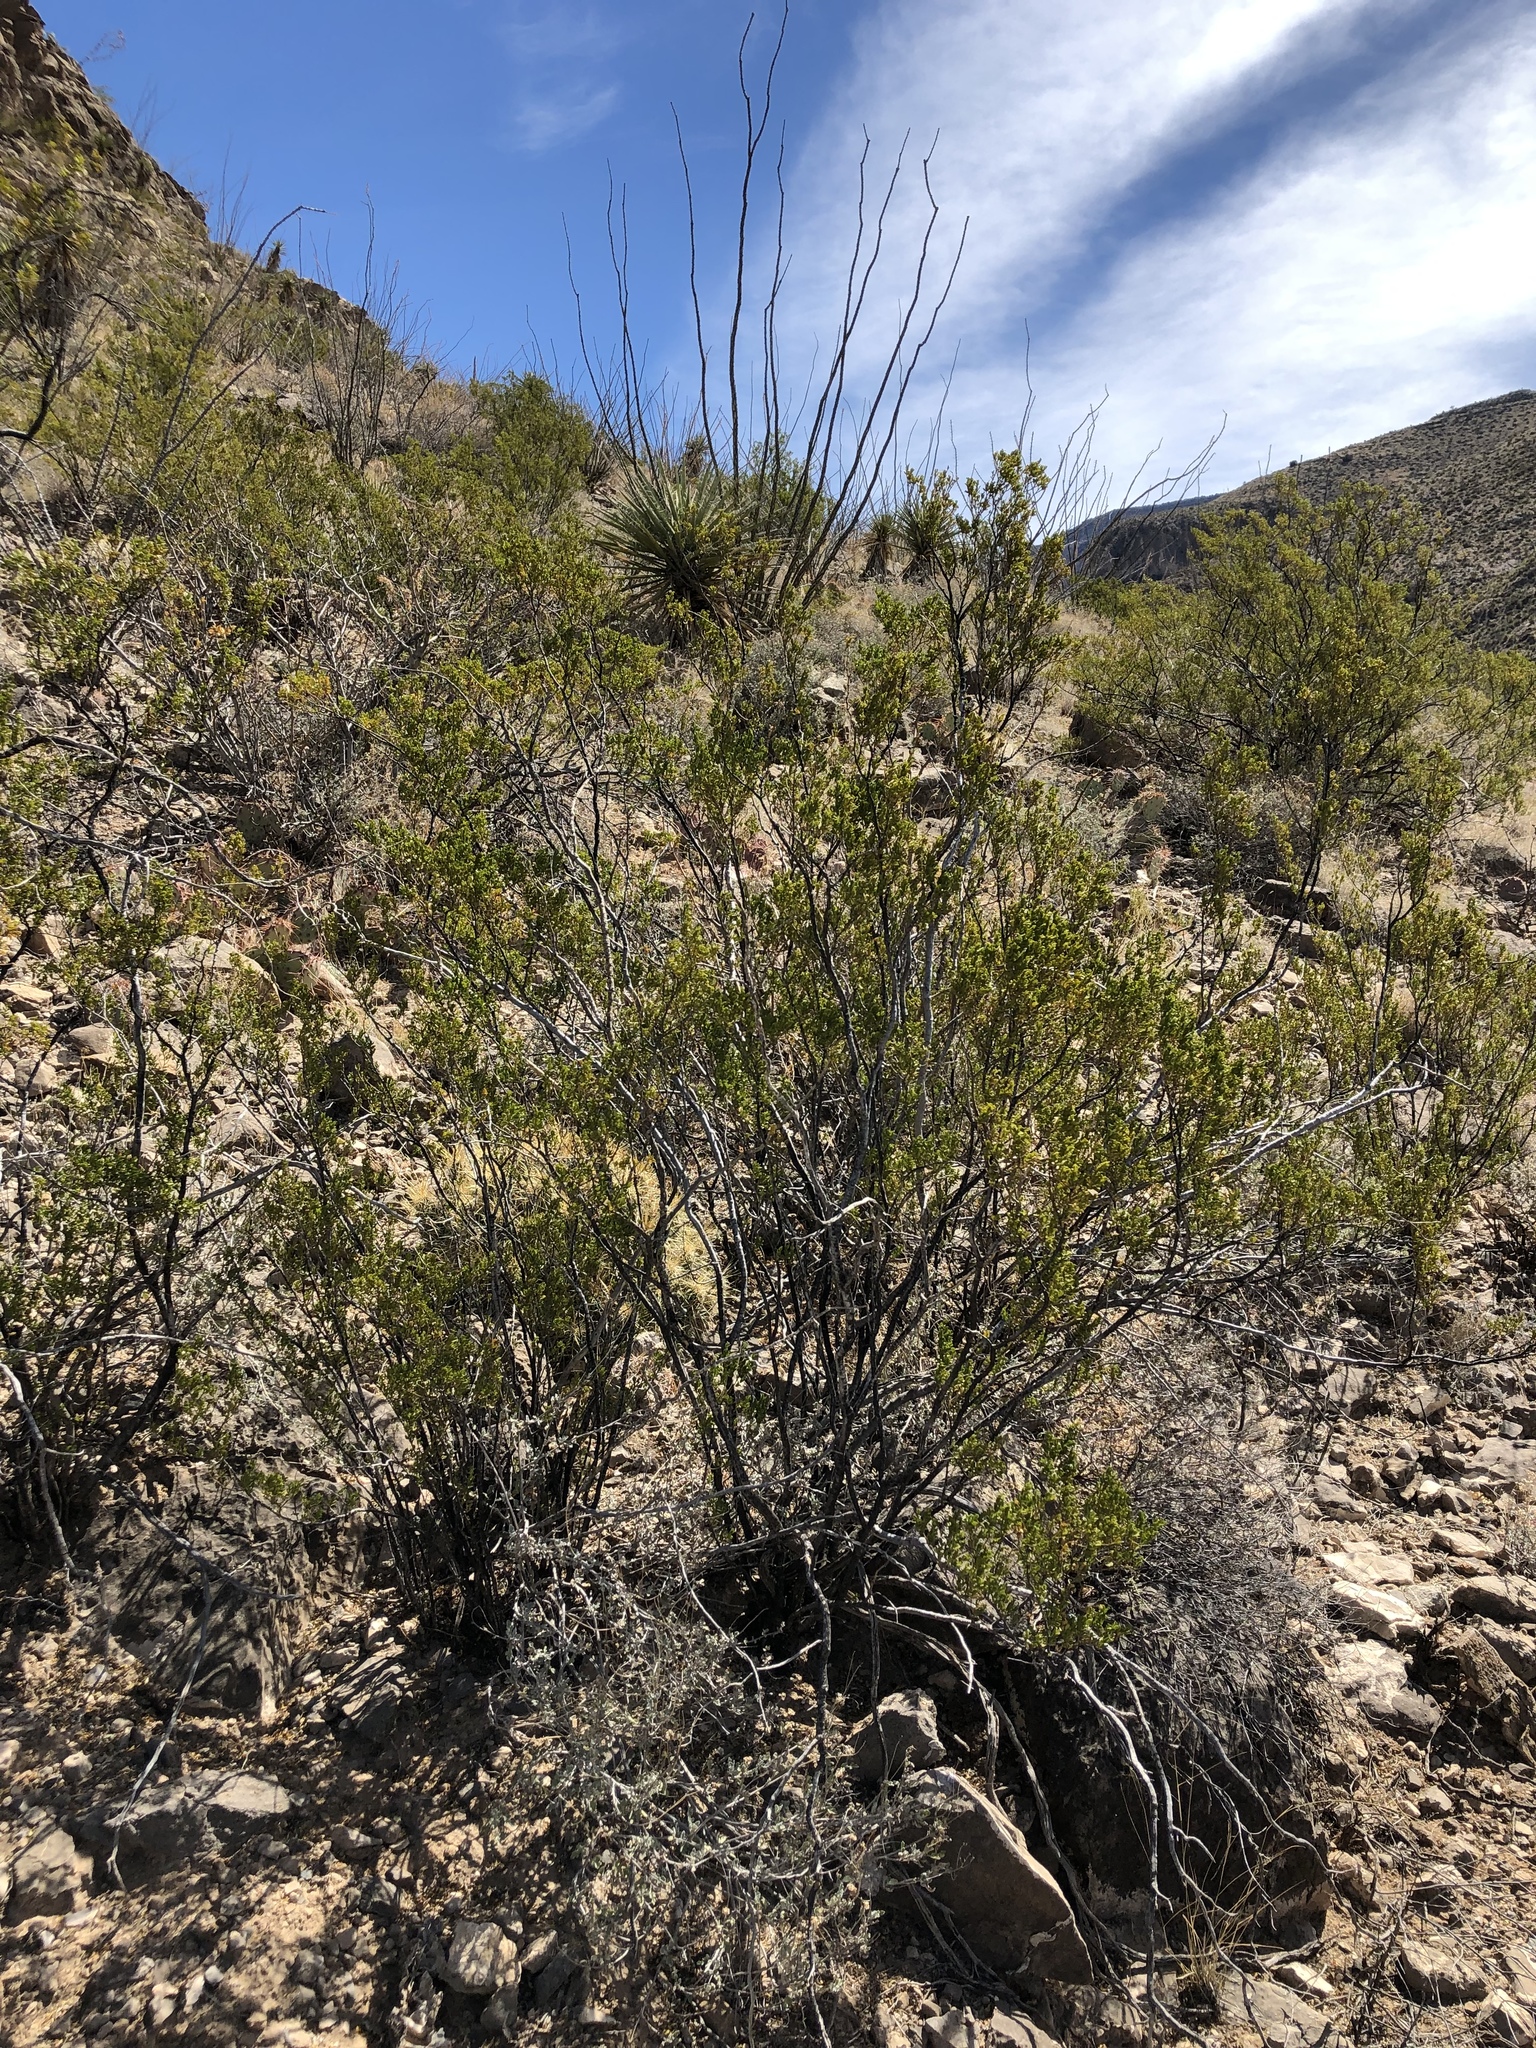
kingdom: Plantae
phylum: Tracheophyta
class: Magnoliopsida
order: Zygophyllales
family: Zygophyllaceae
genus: Larrea
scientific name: Larrea tridentata
